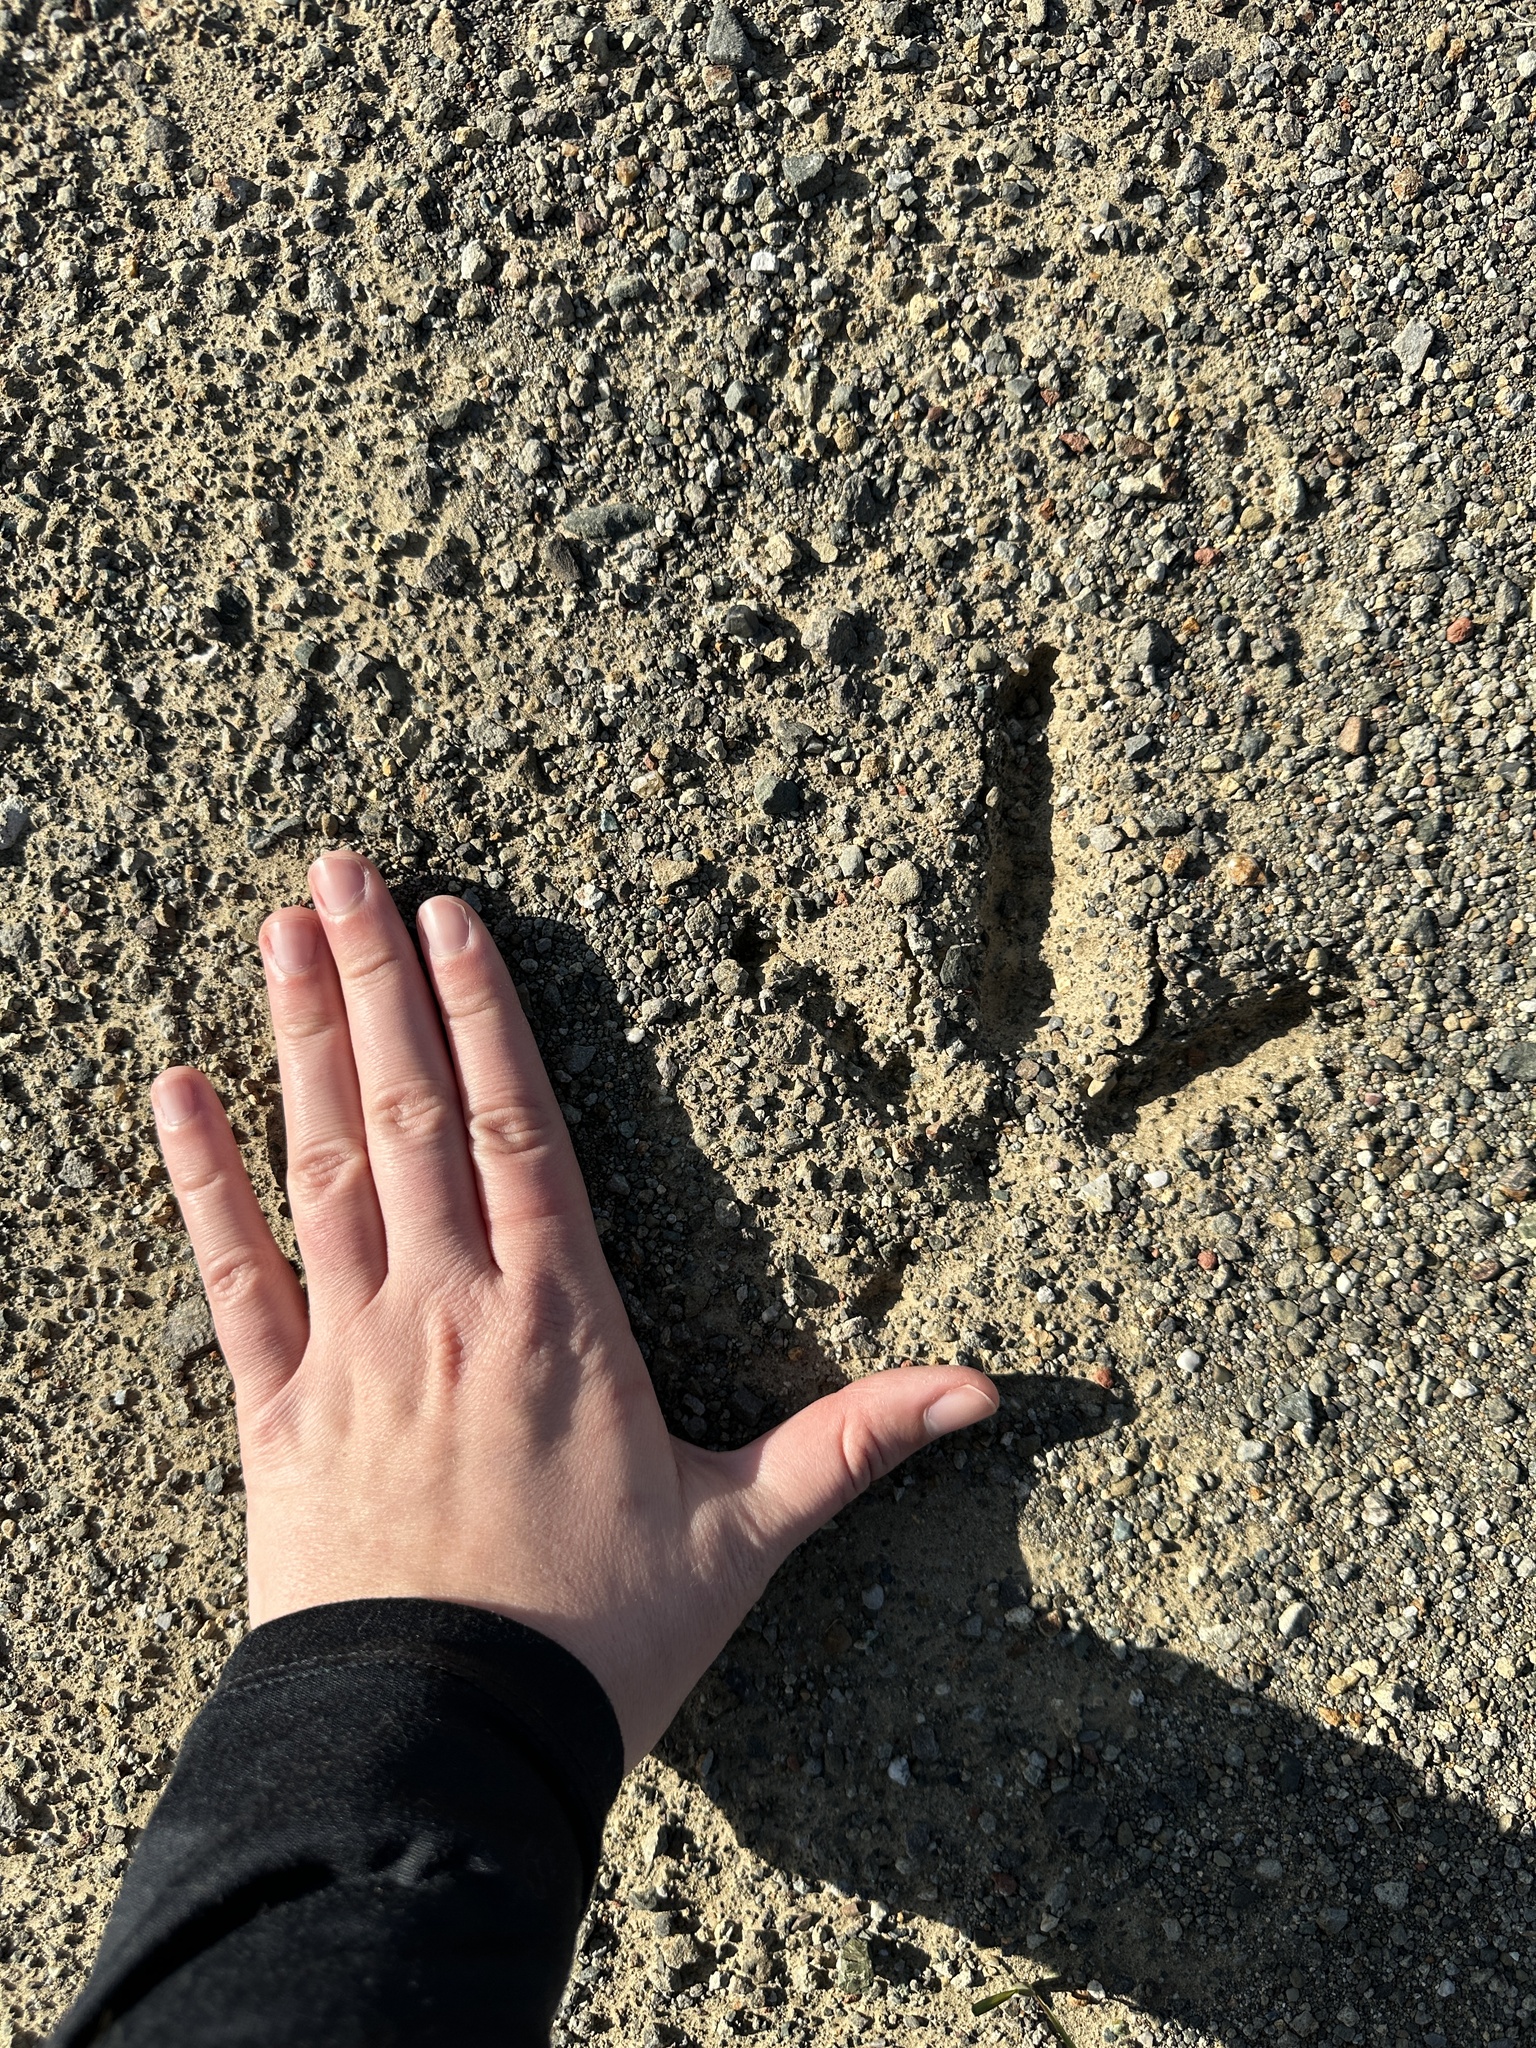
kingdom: Animalia
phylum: Chordata
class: Aves
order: Galliformes
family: Phasianidae
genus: Meleagris
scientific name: Meleagris gallopavo
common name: Wild turkey
